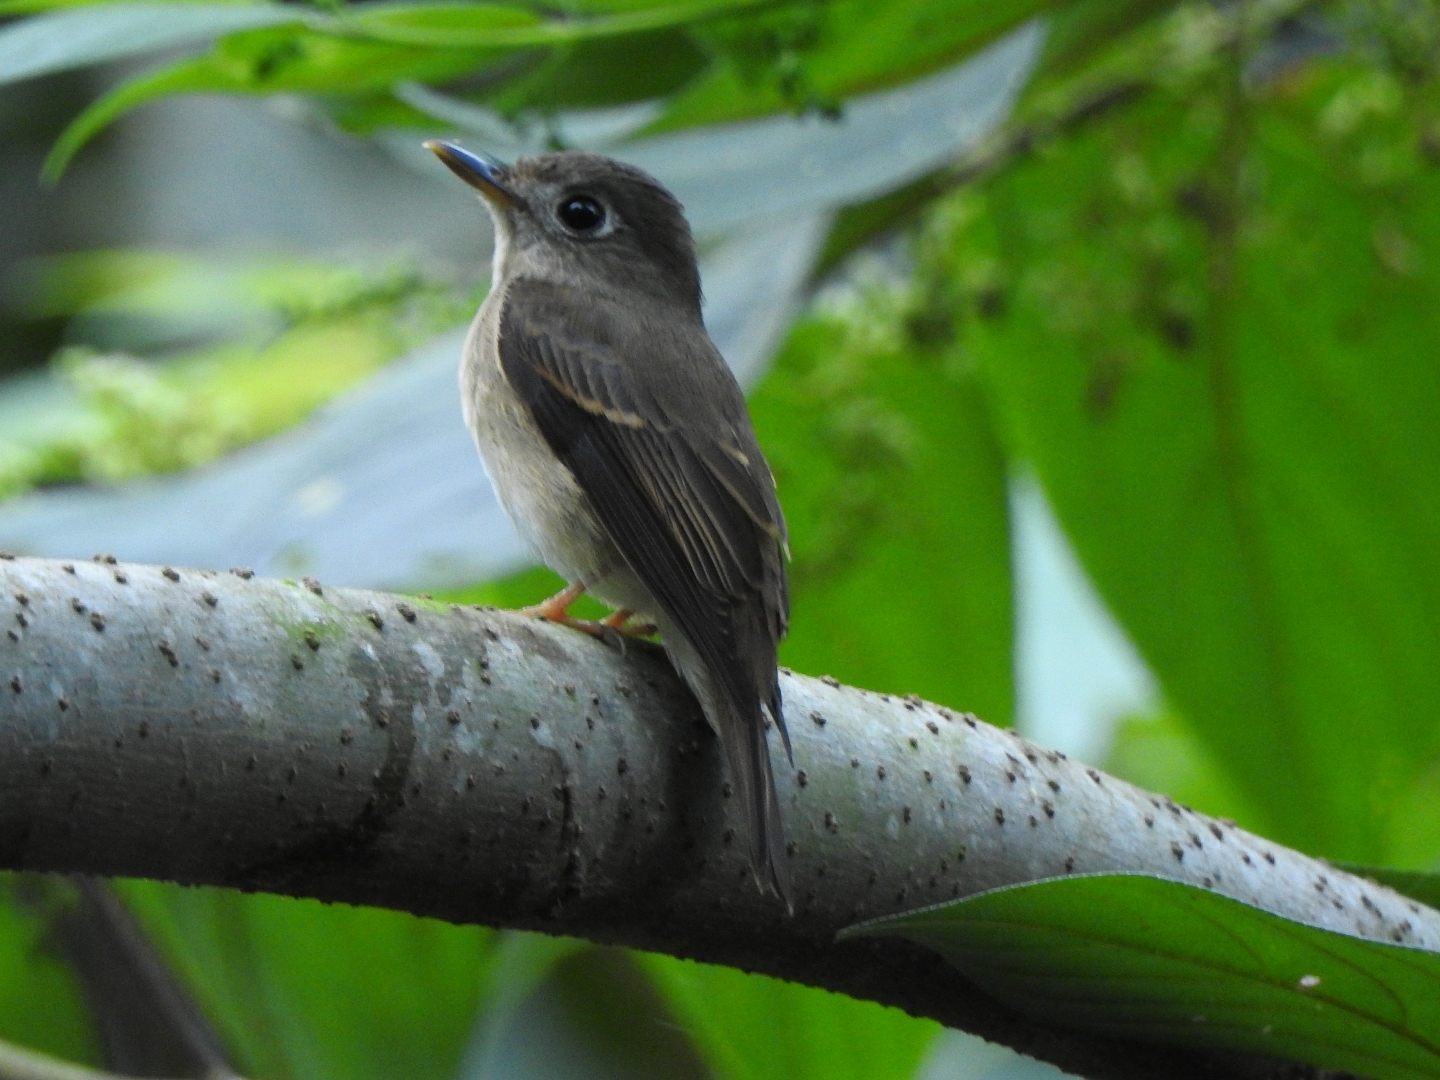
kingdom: Animalia
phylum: Chordata
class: Aves
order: Passeriformes
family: Muscicapidae
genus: Muscicapa
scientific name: Muscicapa muttui
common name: Brown-breasted flycatcher
